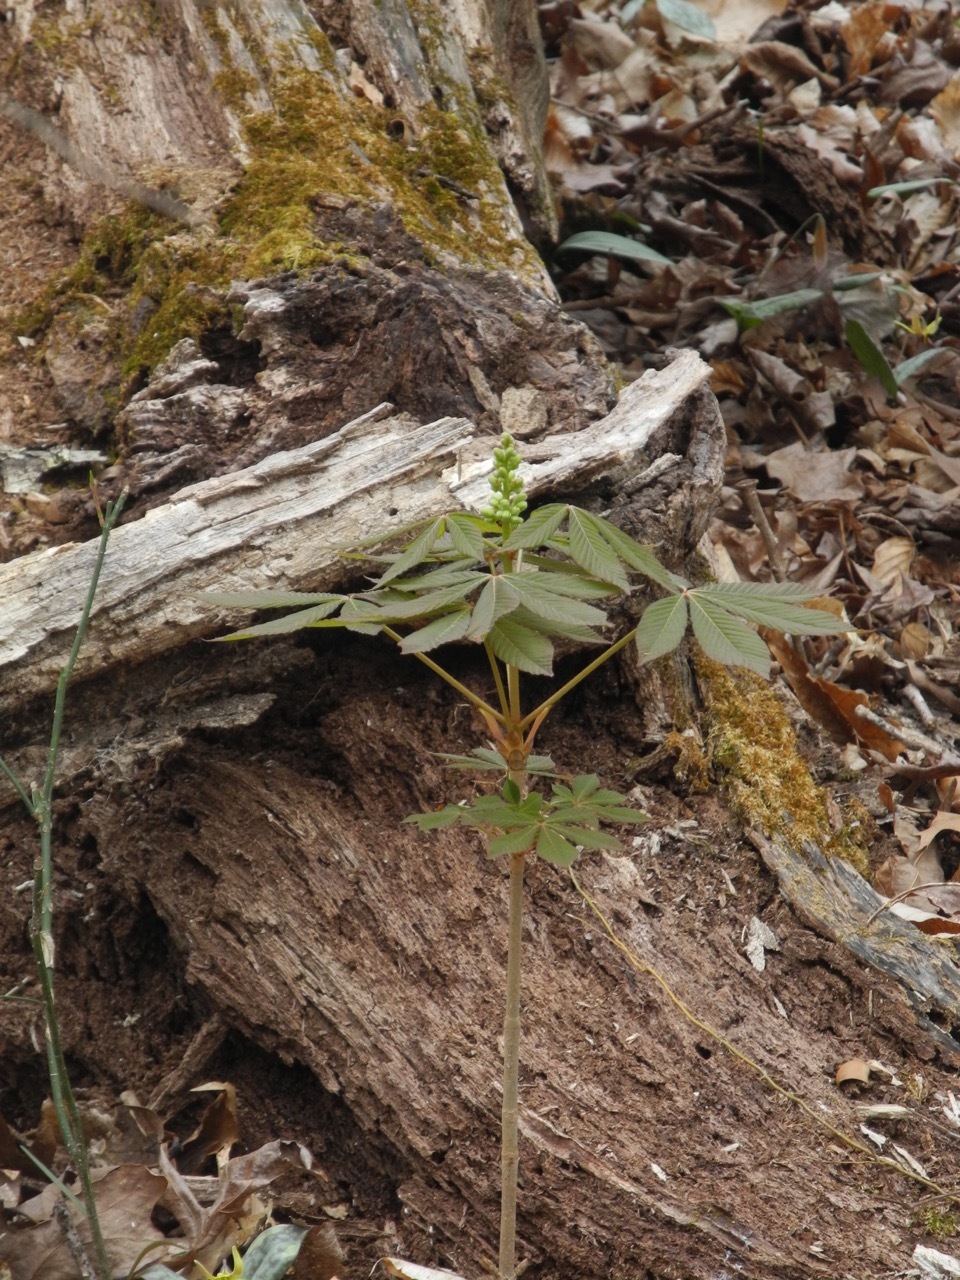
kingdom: Plantae
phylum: Tracheophyta
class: Magnoliopsida
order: Sapindales
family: Sapindaceae
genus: Aesculus
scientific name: Aesculus sylvatica
